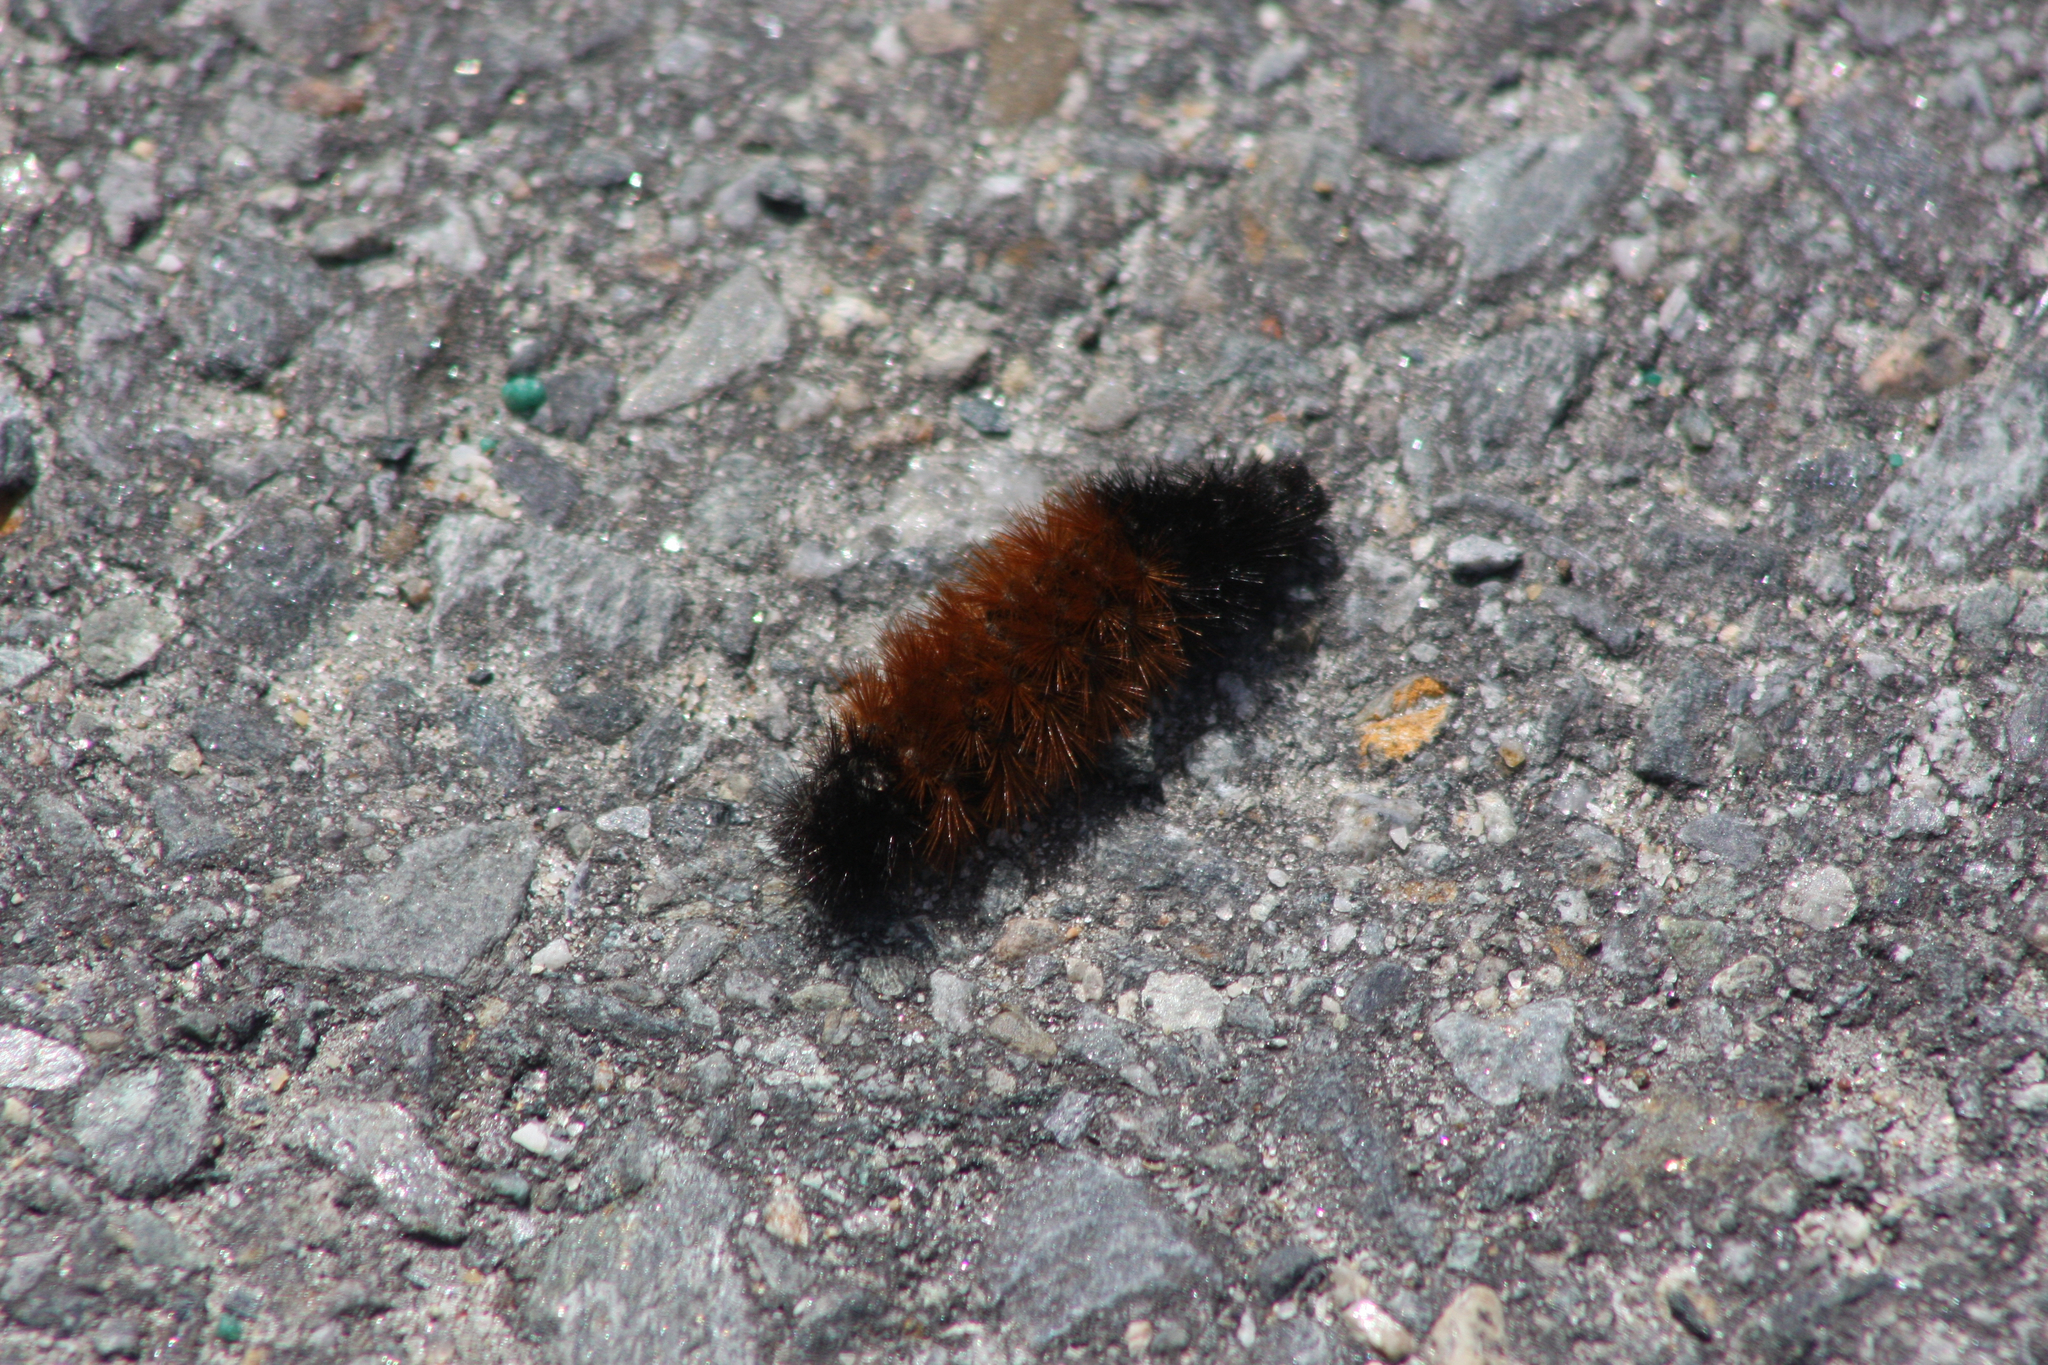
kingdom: Animalia
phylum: Arthropoda
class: Insecta
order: Lepidoptera
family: Erebidae
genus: Pyrrharctia
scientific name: Pyrrharctia isabella
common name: Isabella tiger moth
